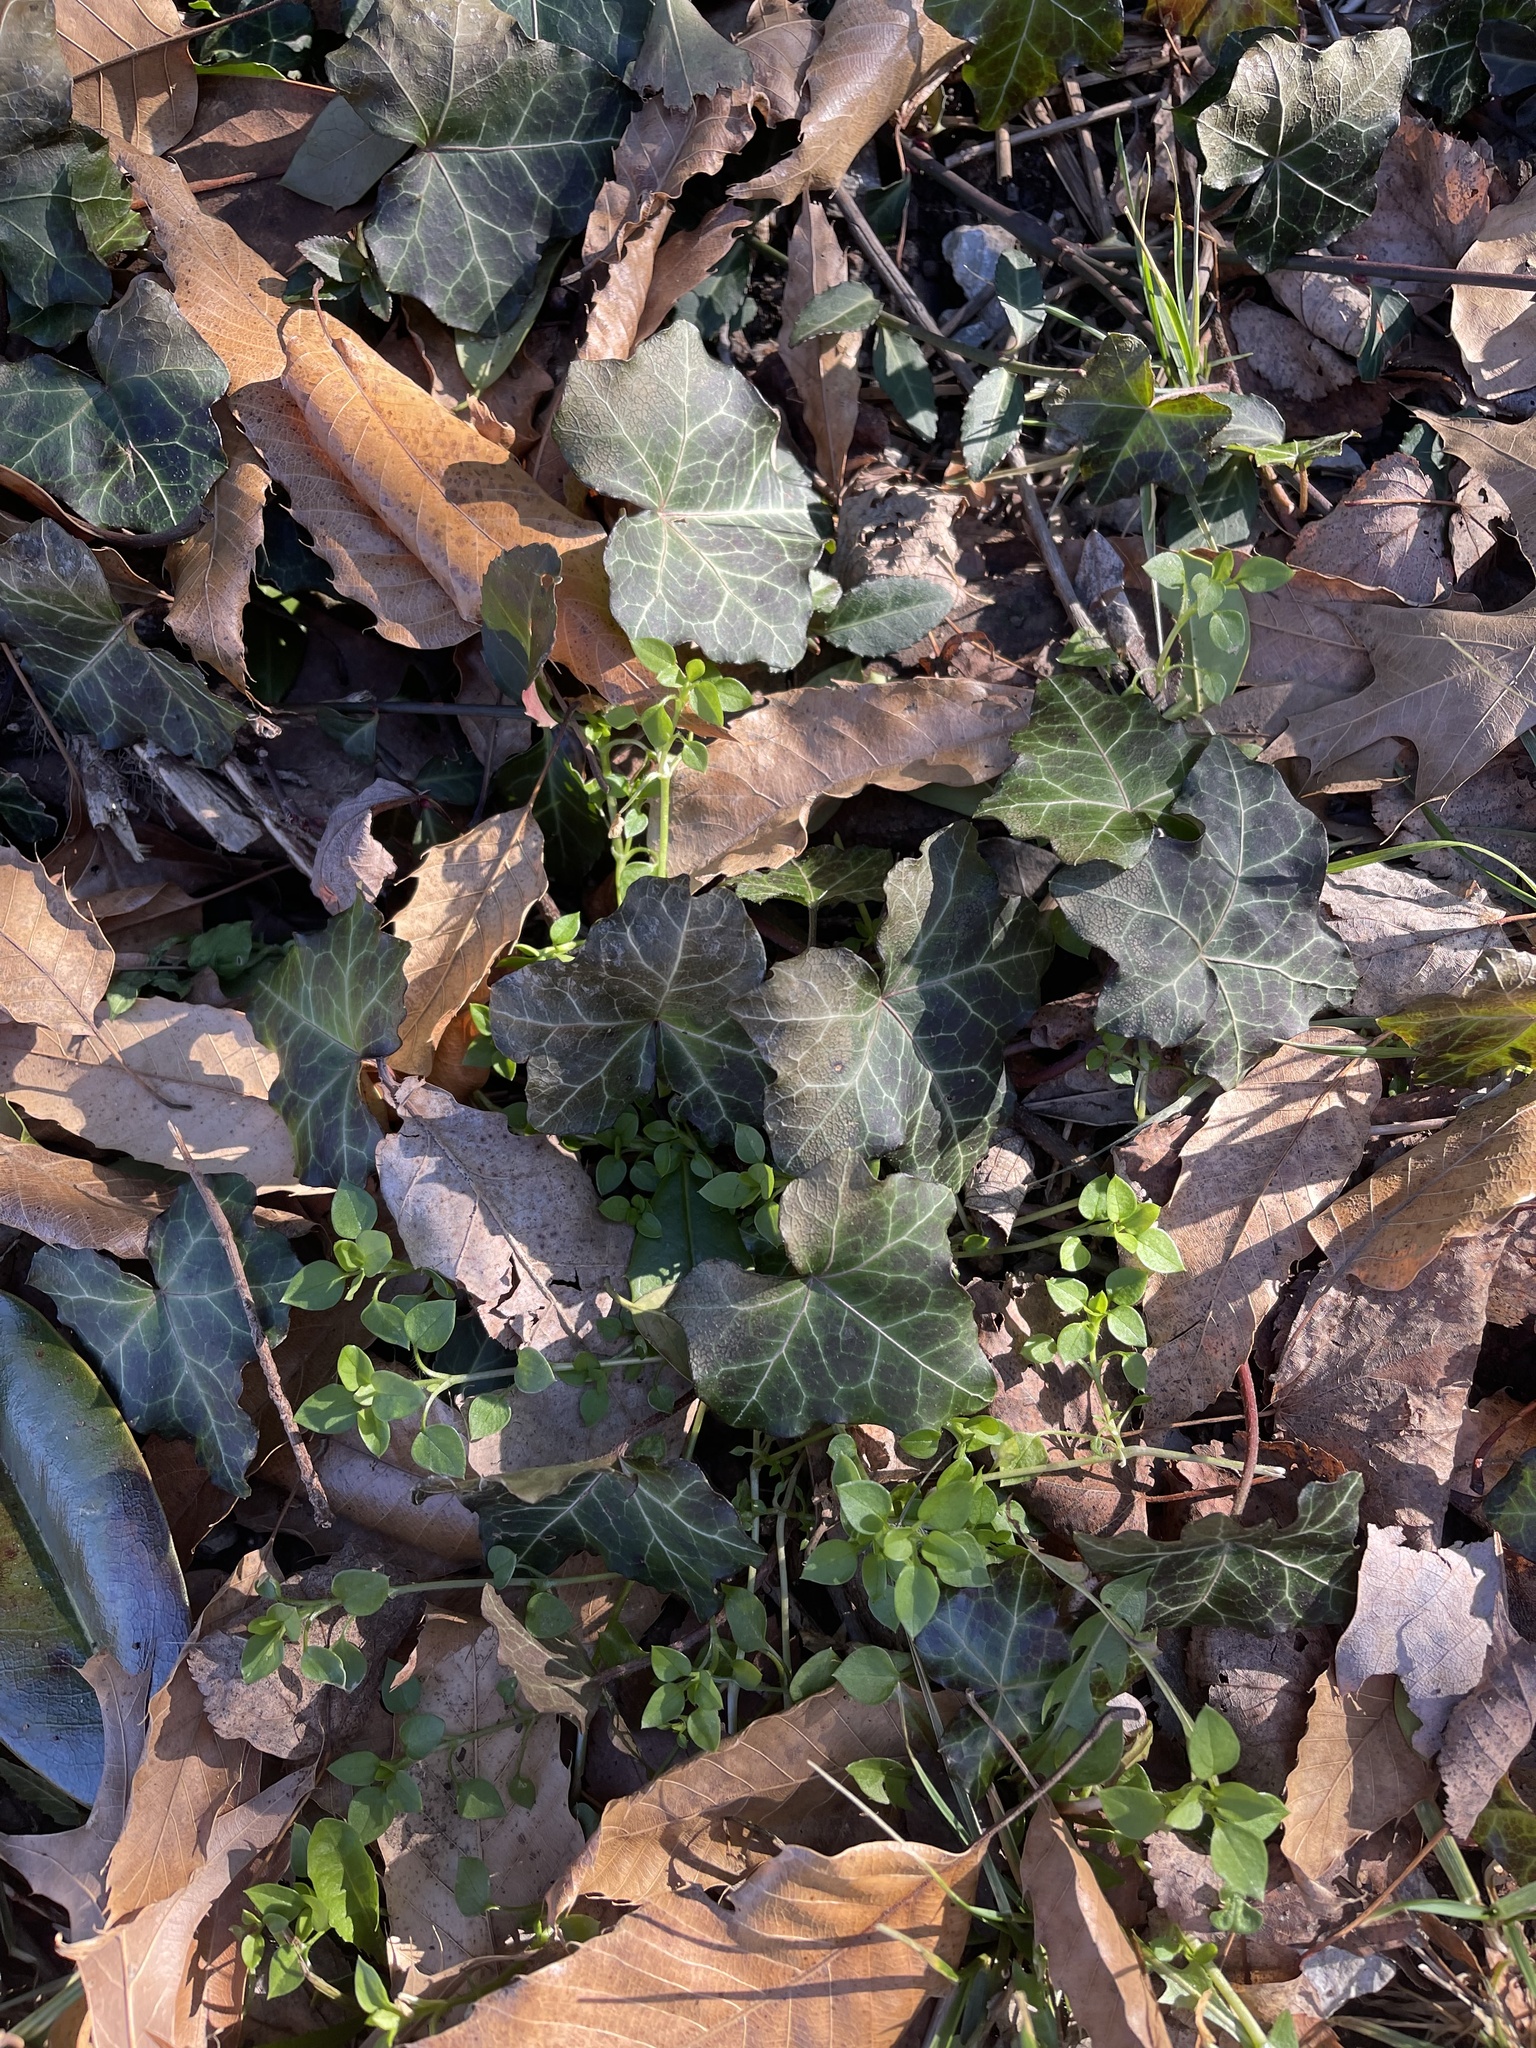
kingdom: Plantae
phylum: Tracheophyta
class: Magnoliopsida
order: Apiales
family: Araliaceae
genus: Hedera
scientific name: Hedera helix
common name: Ivy
